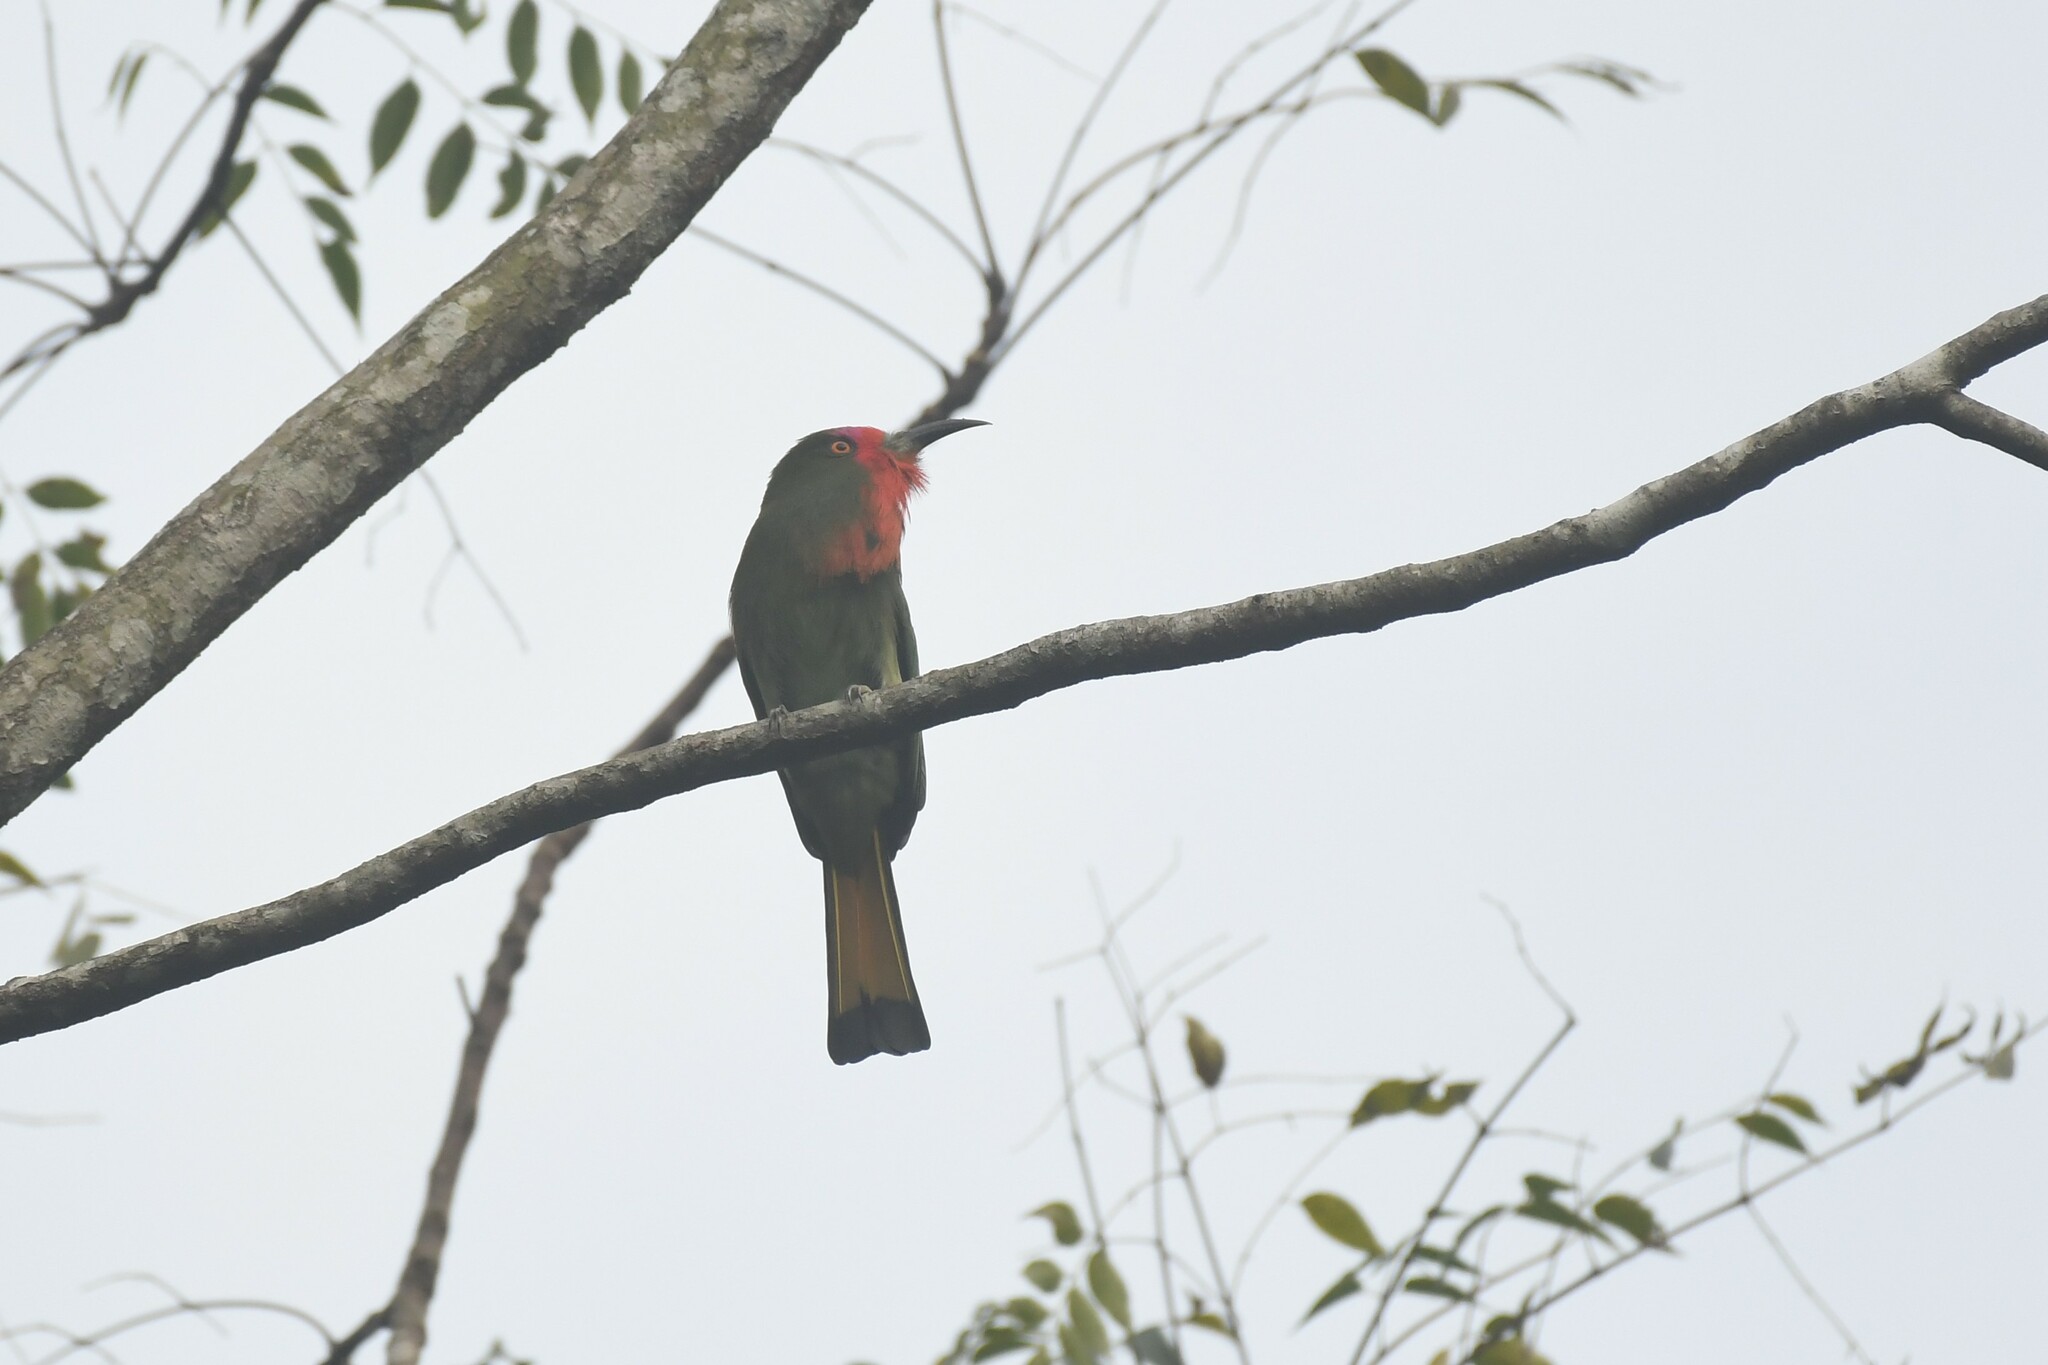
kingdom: Animalia
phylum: Chordata
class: Aves
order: Coraciiformes
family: Meropidae
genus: Nyctyornis
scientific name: Nyctyornis amictus
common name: Red-bearded bee-eater
